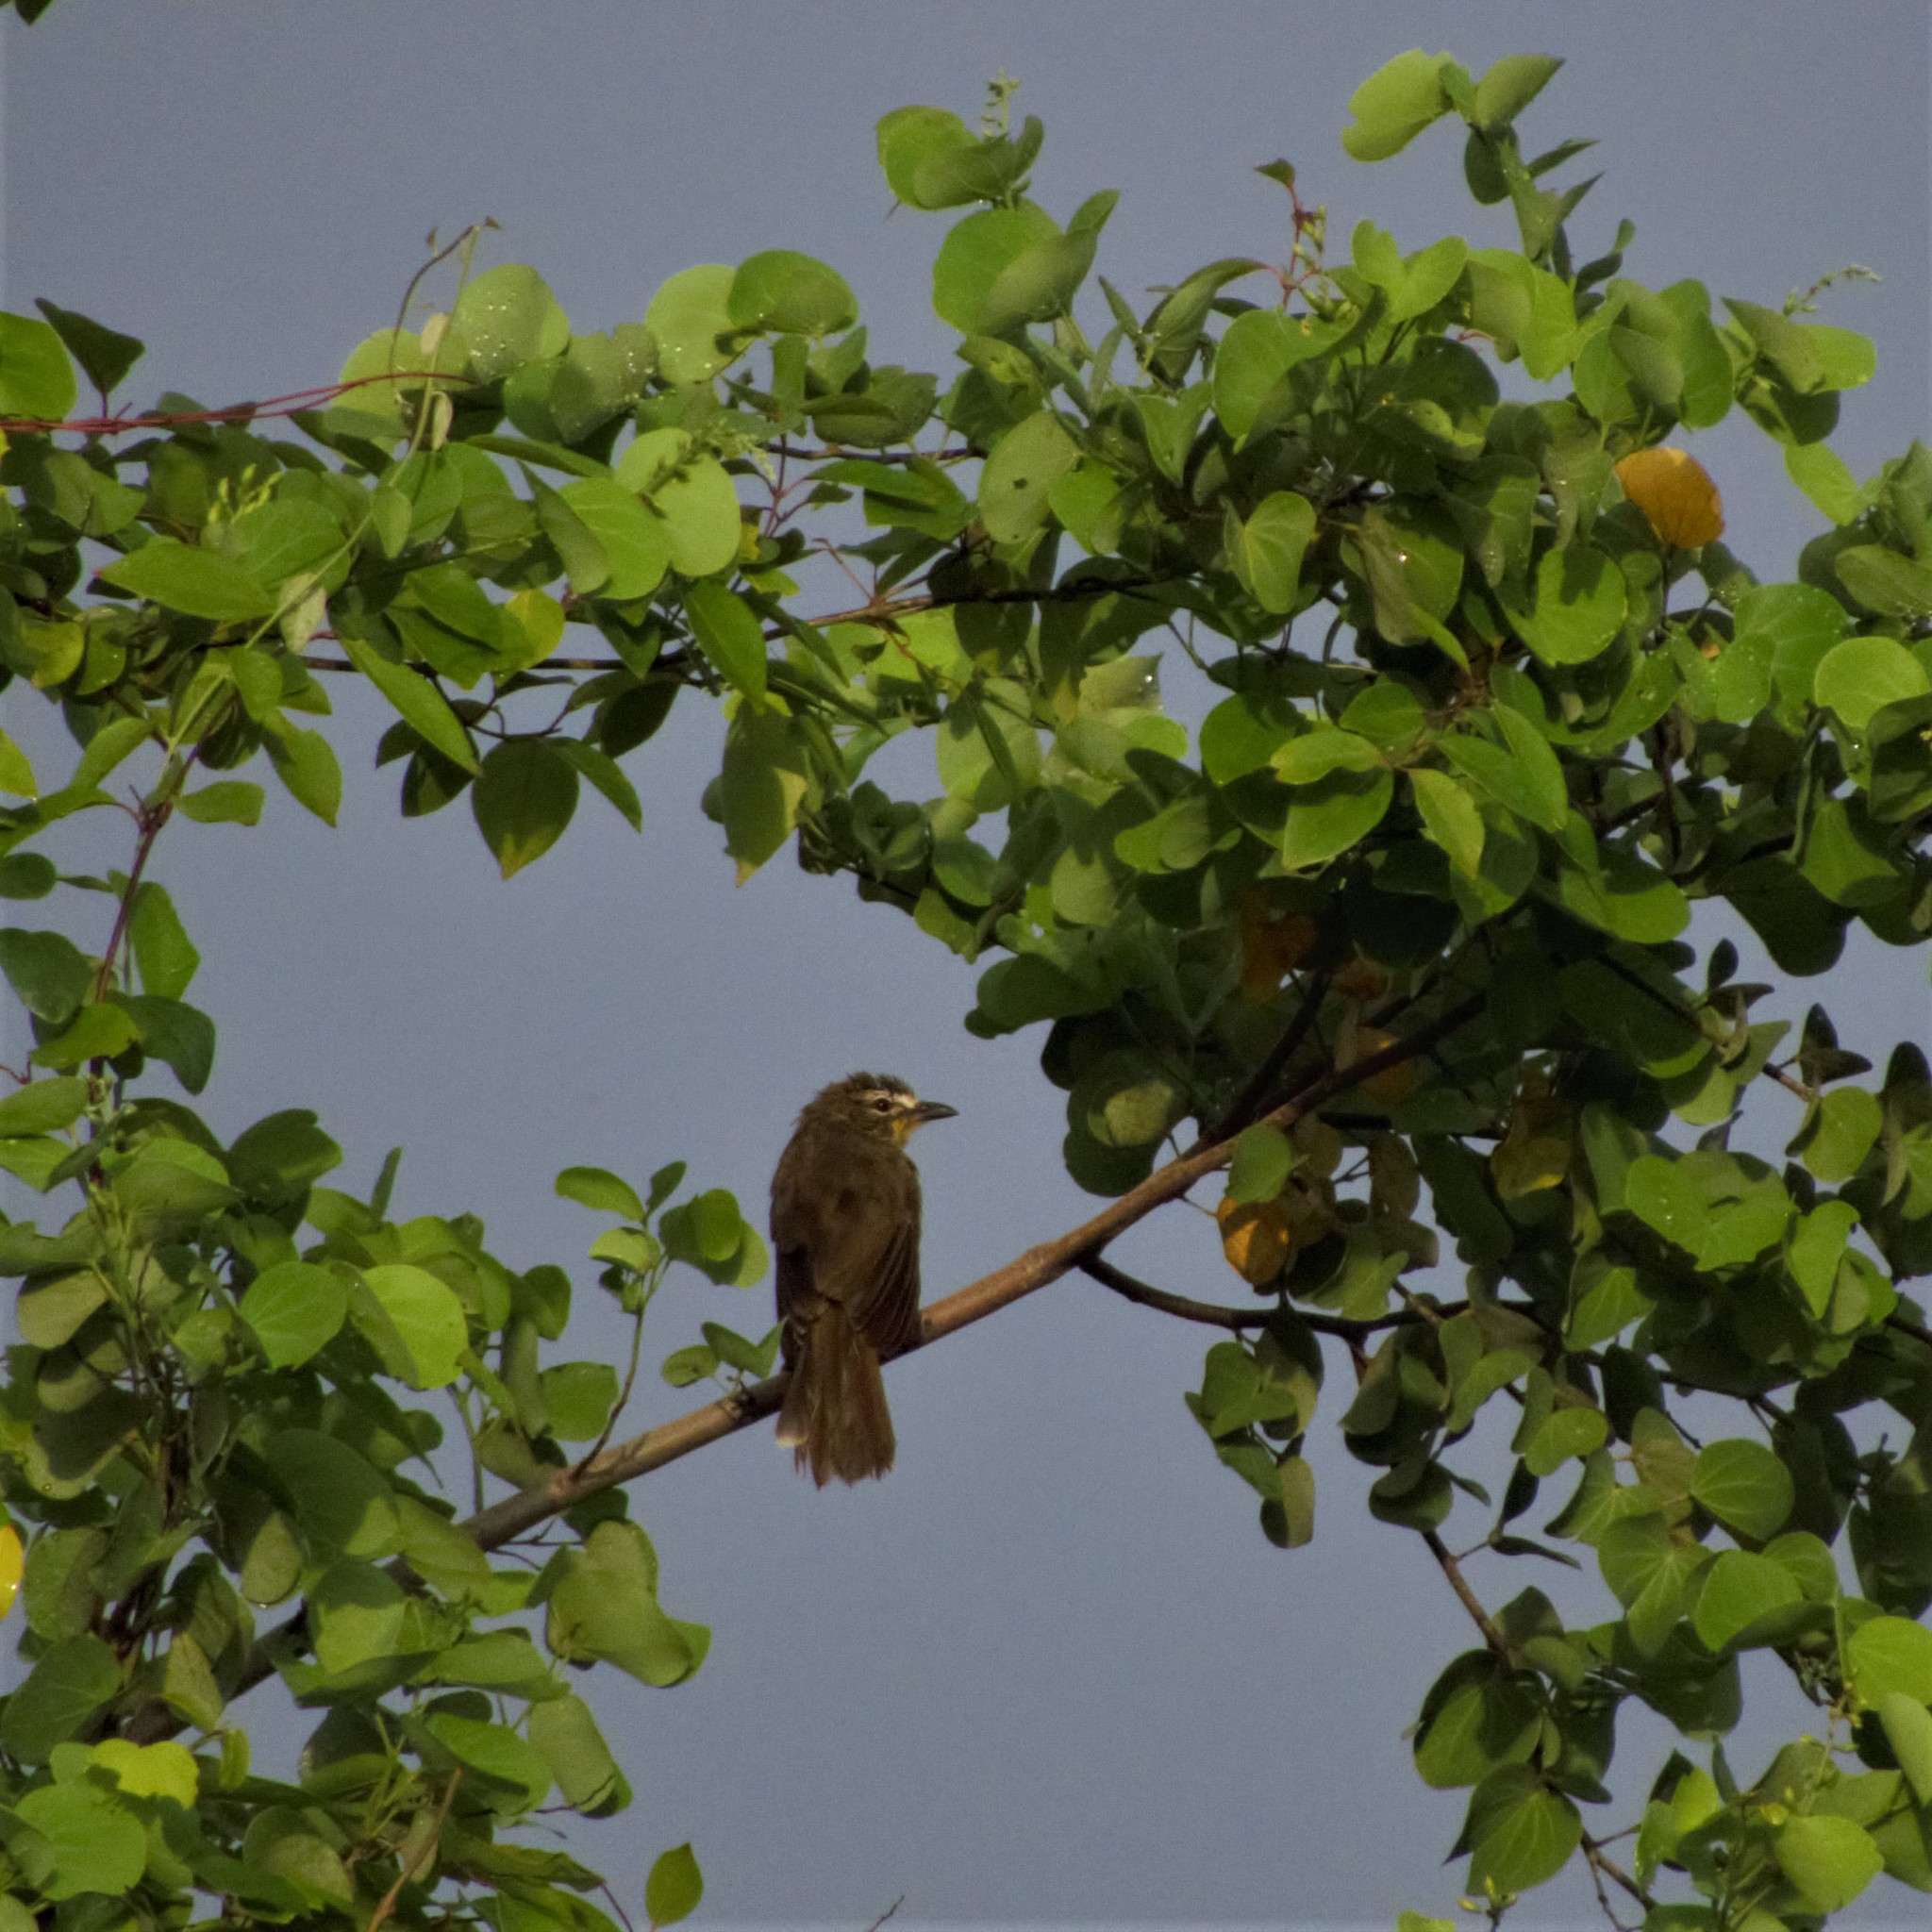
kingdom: Animalia
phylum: Chordata
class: Aves
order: Passeriformes
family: Pycnonotidae
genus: Pycnonotus
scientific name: Pycnonotus luteolus
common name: White-browed bulbul
